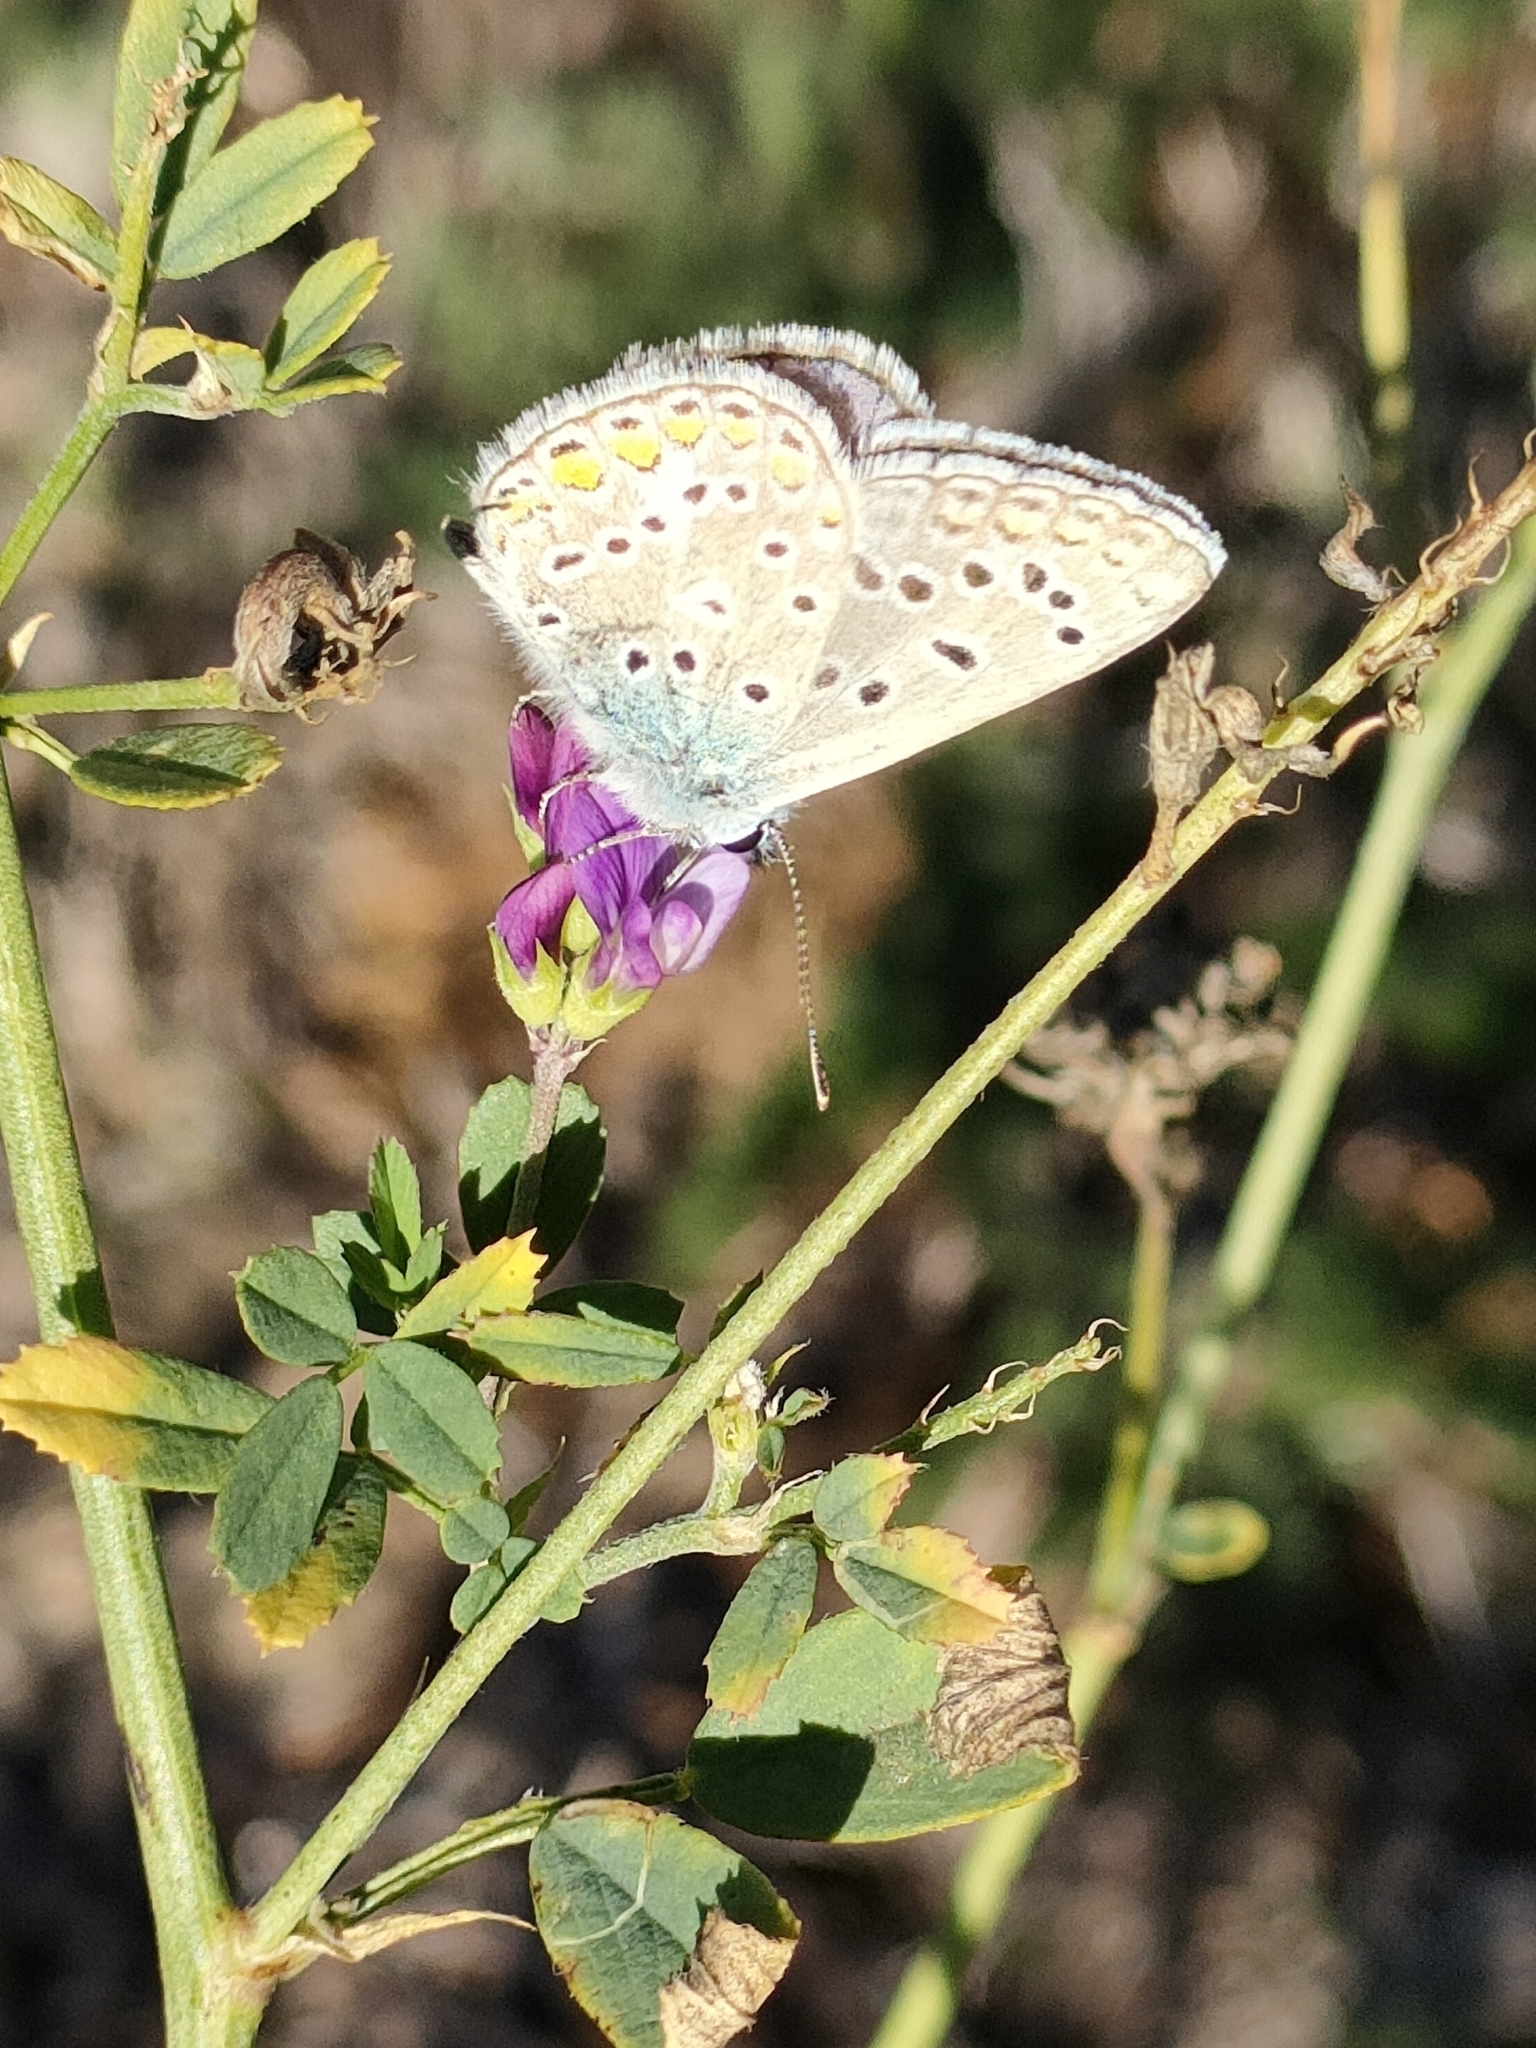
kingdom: Animalia
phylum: Arthropoda
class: Insecta
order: Lepidoptera
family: Lycaenidae
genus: Polyommatus
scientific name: Polyommatus icarus
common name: Common blue
